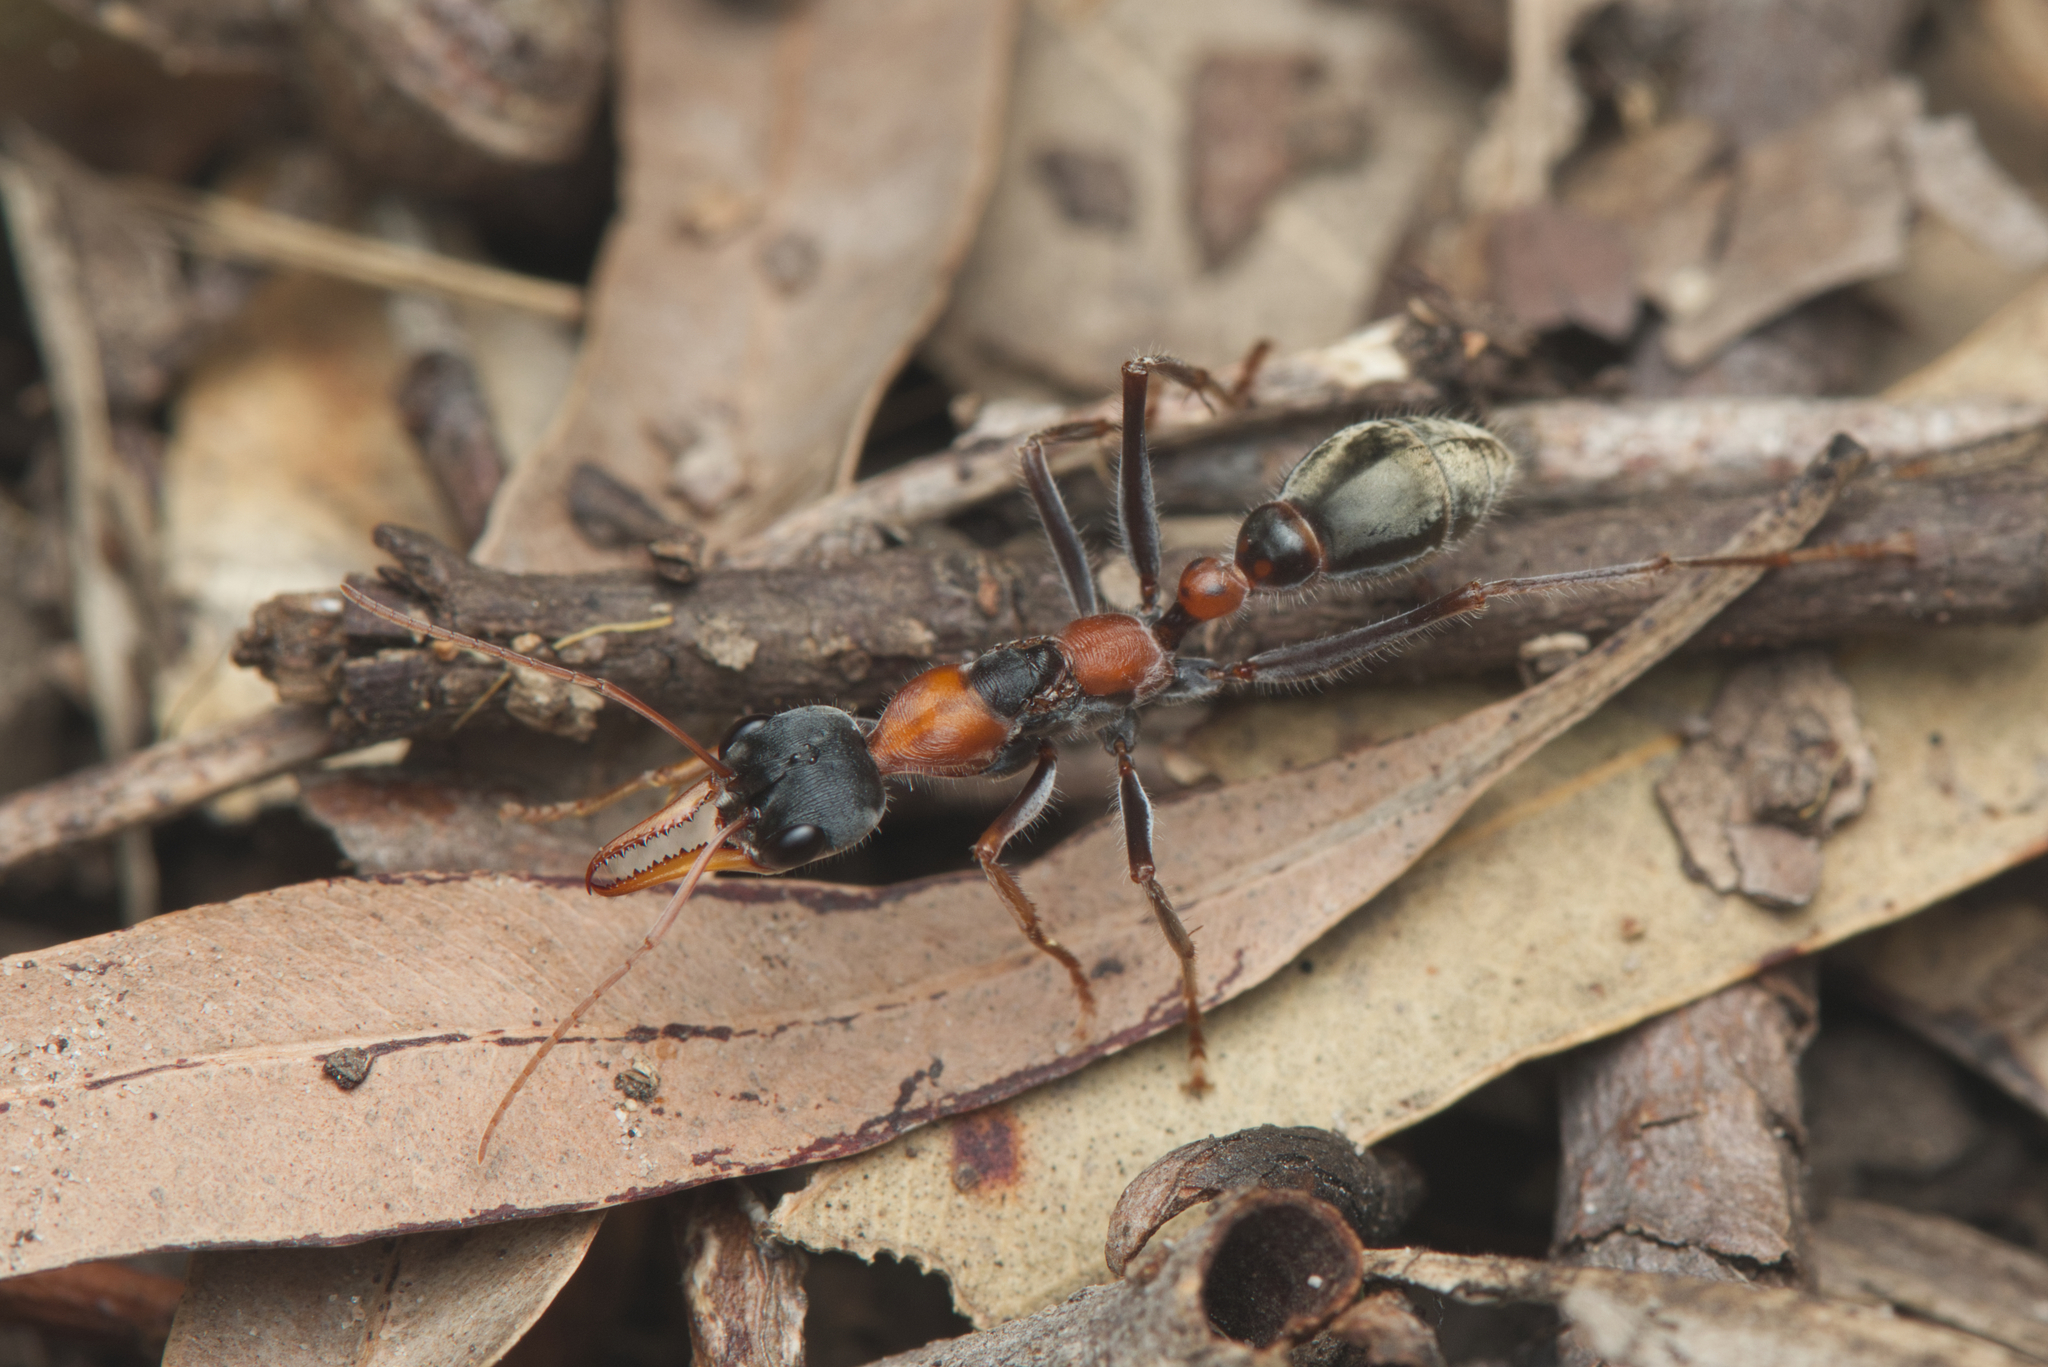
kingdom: Animalia
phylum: Arthropoda
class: Insecta
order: Hymenoptera
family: Formicidae
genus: Myrmecia
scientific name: Myrmecia nigrocincta
